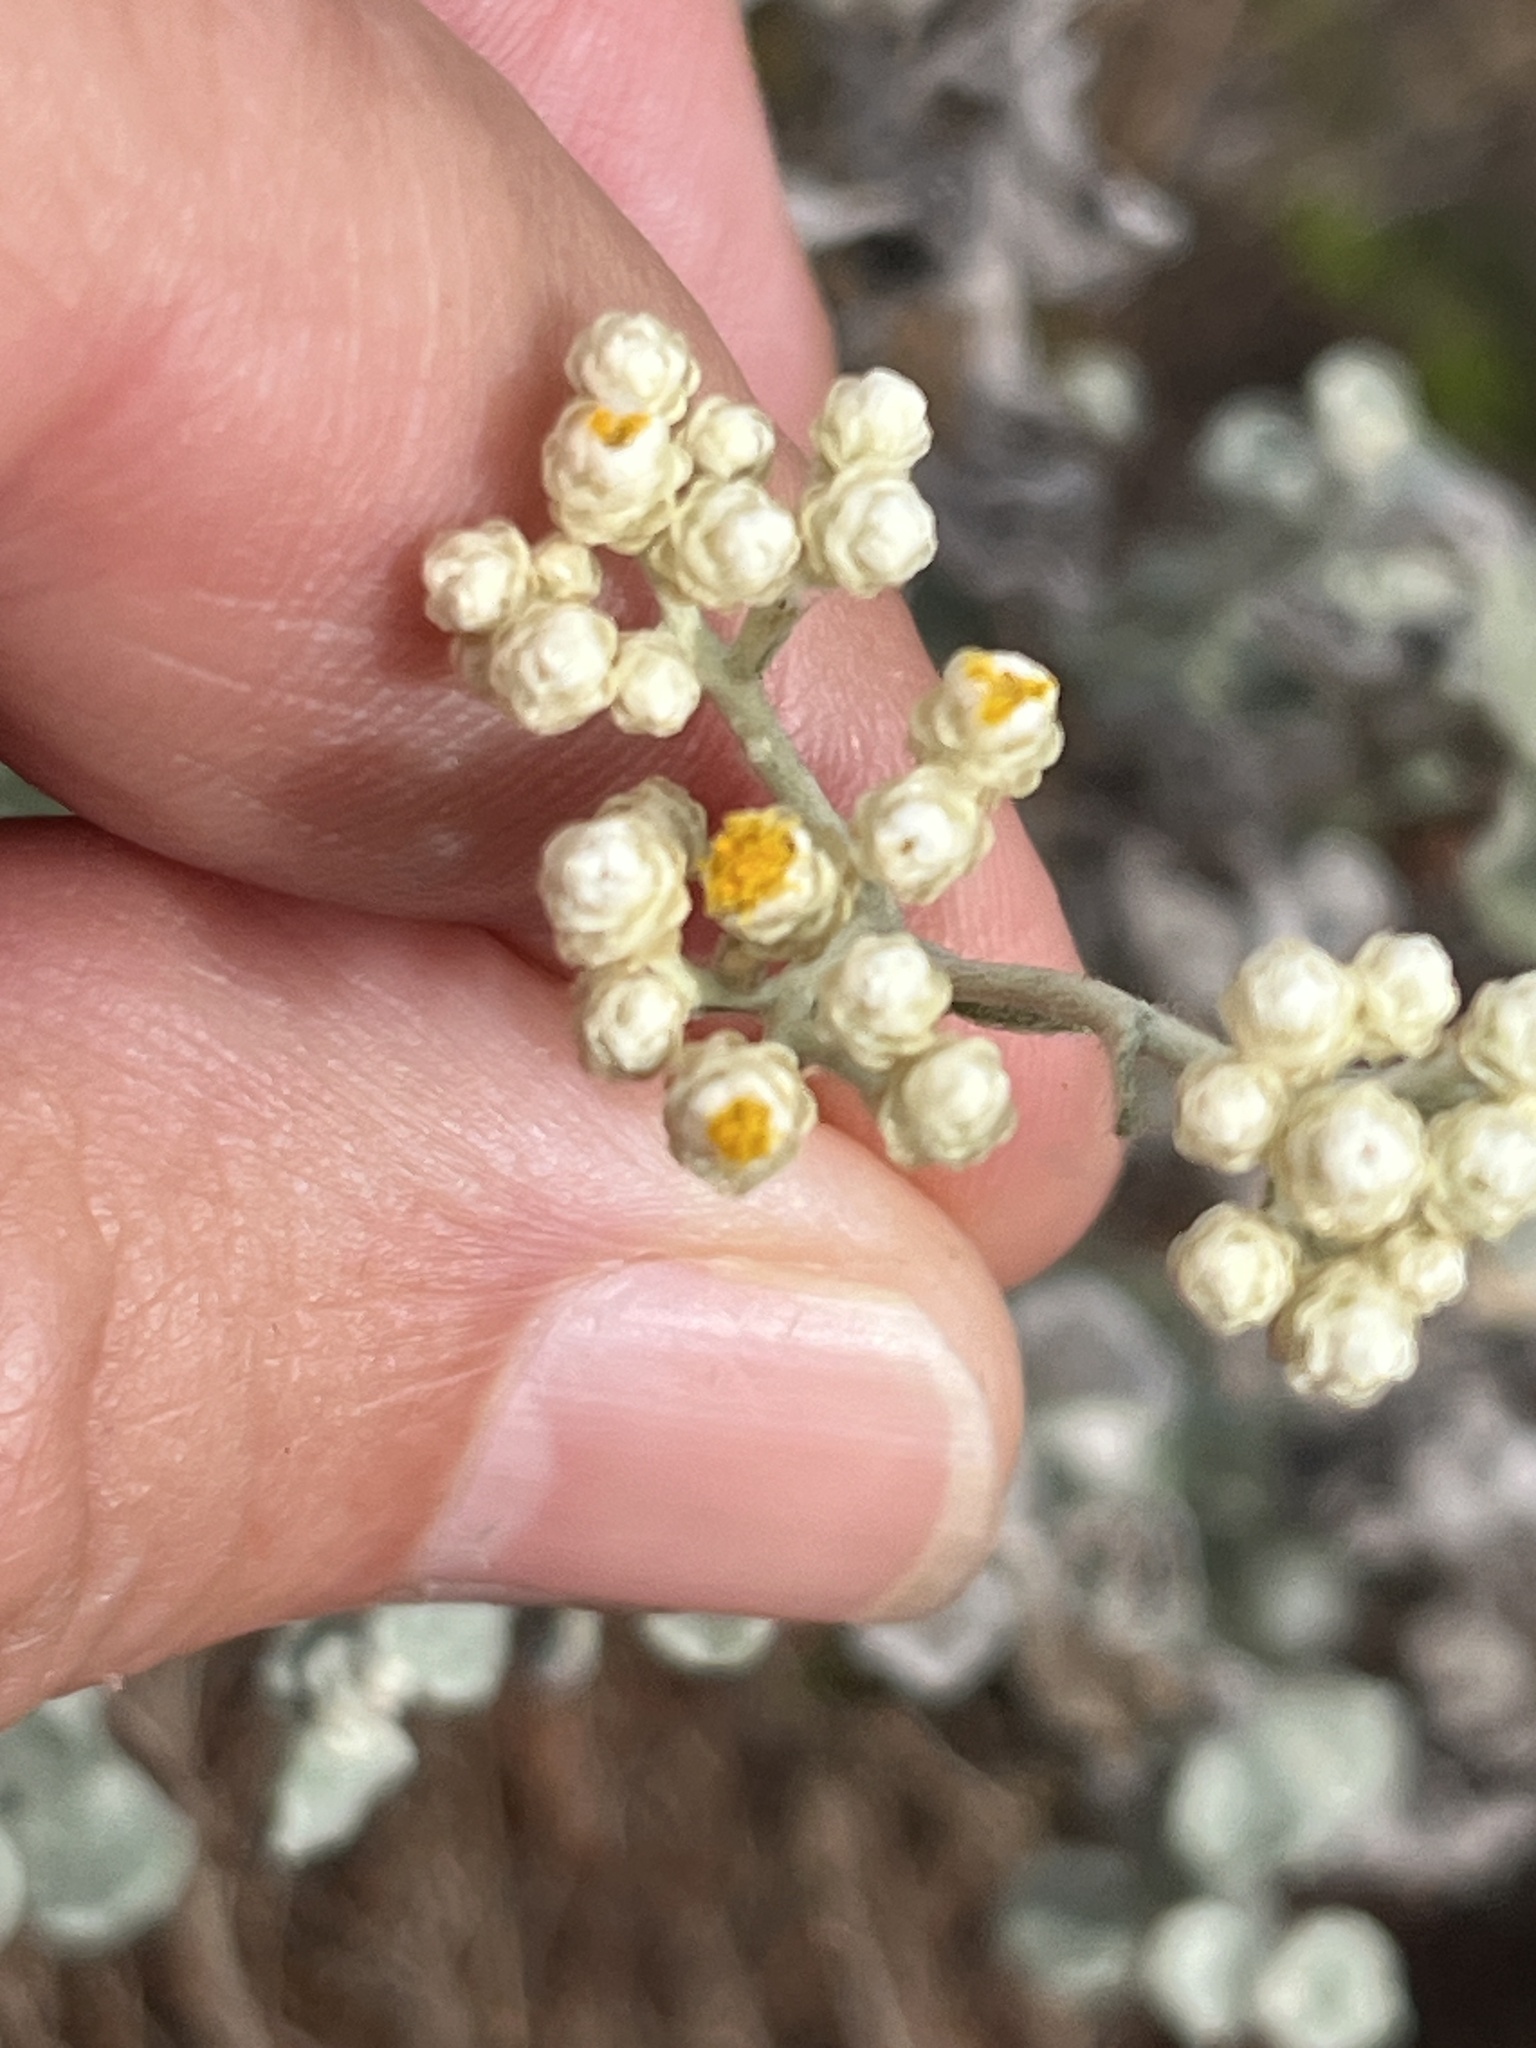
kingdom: Plantae
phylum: Tracheophyta
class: Magnoliopsida
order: Asterales
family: Asteraceae
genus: Helichrysum
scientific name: Helichrysum patulum
